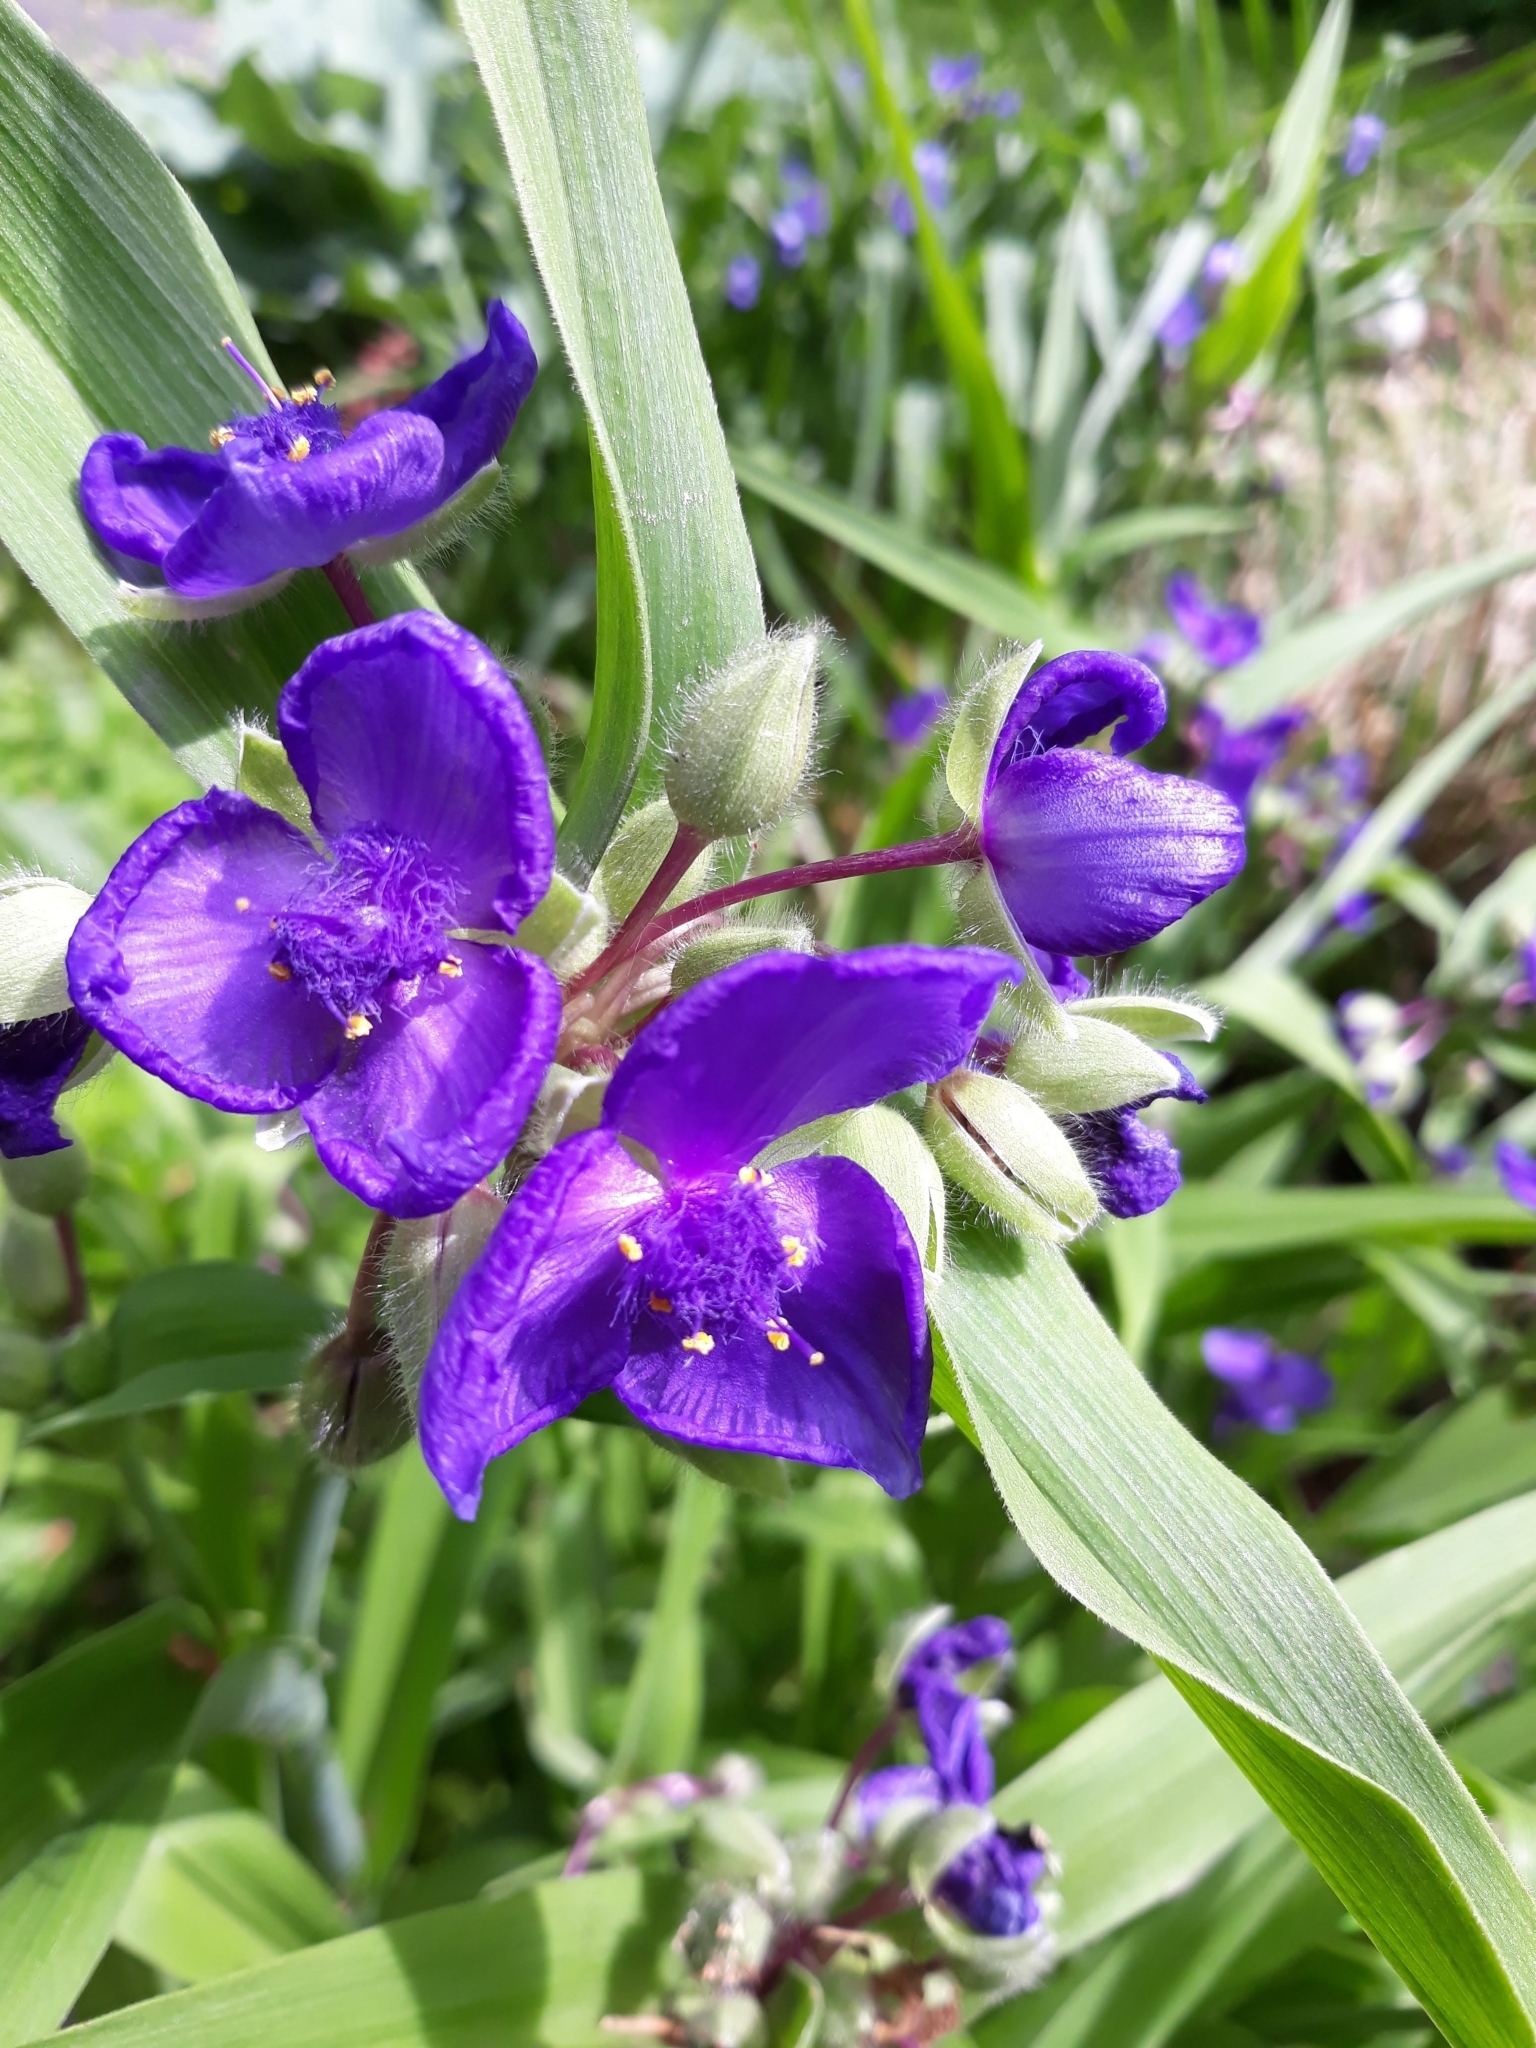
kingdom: Plantae
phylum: Tracheophyta
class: Liliopsida
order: Commelinales
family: Commelinaceae
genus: Tradescantia
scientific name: Tradescantia virginiana
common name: Spiderwort
